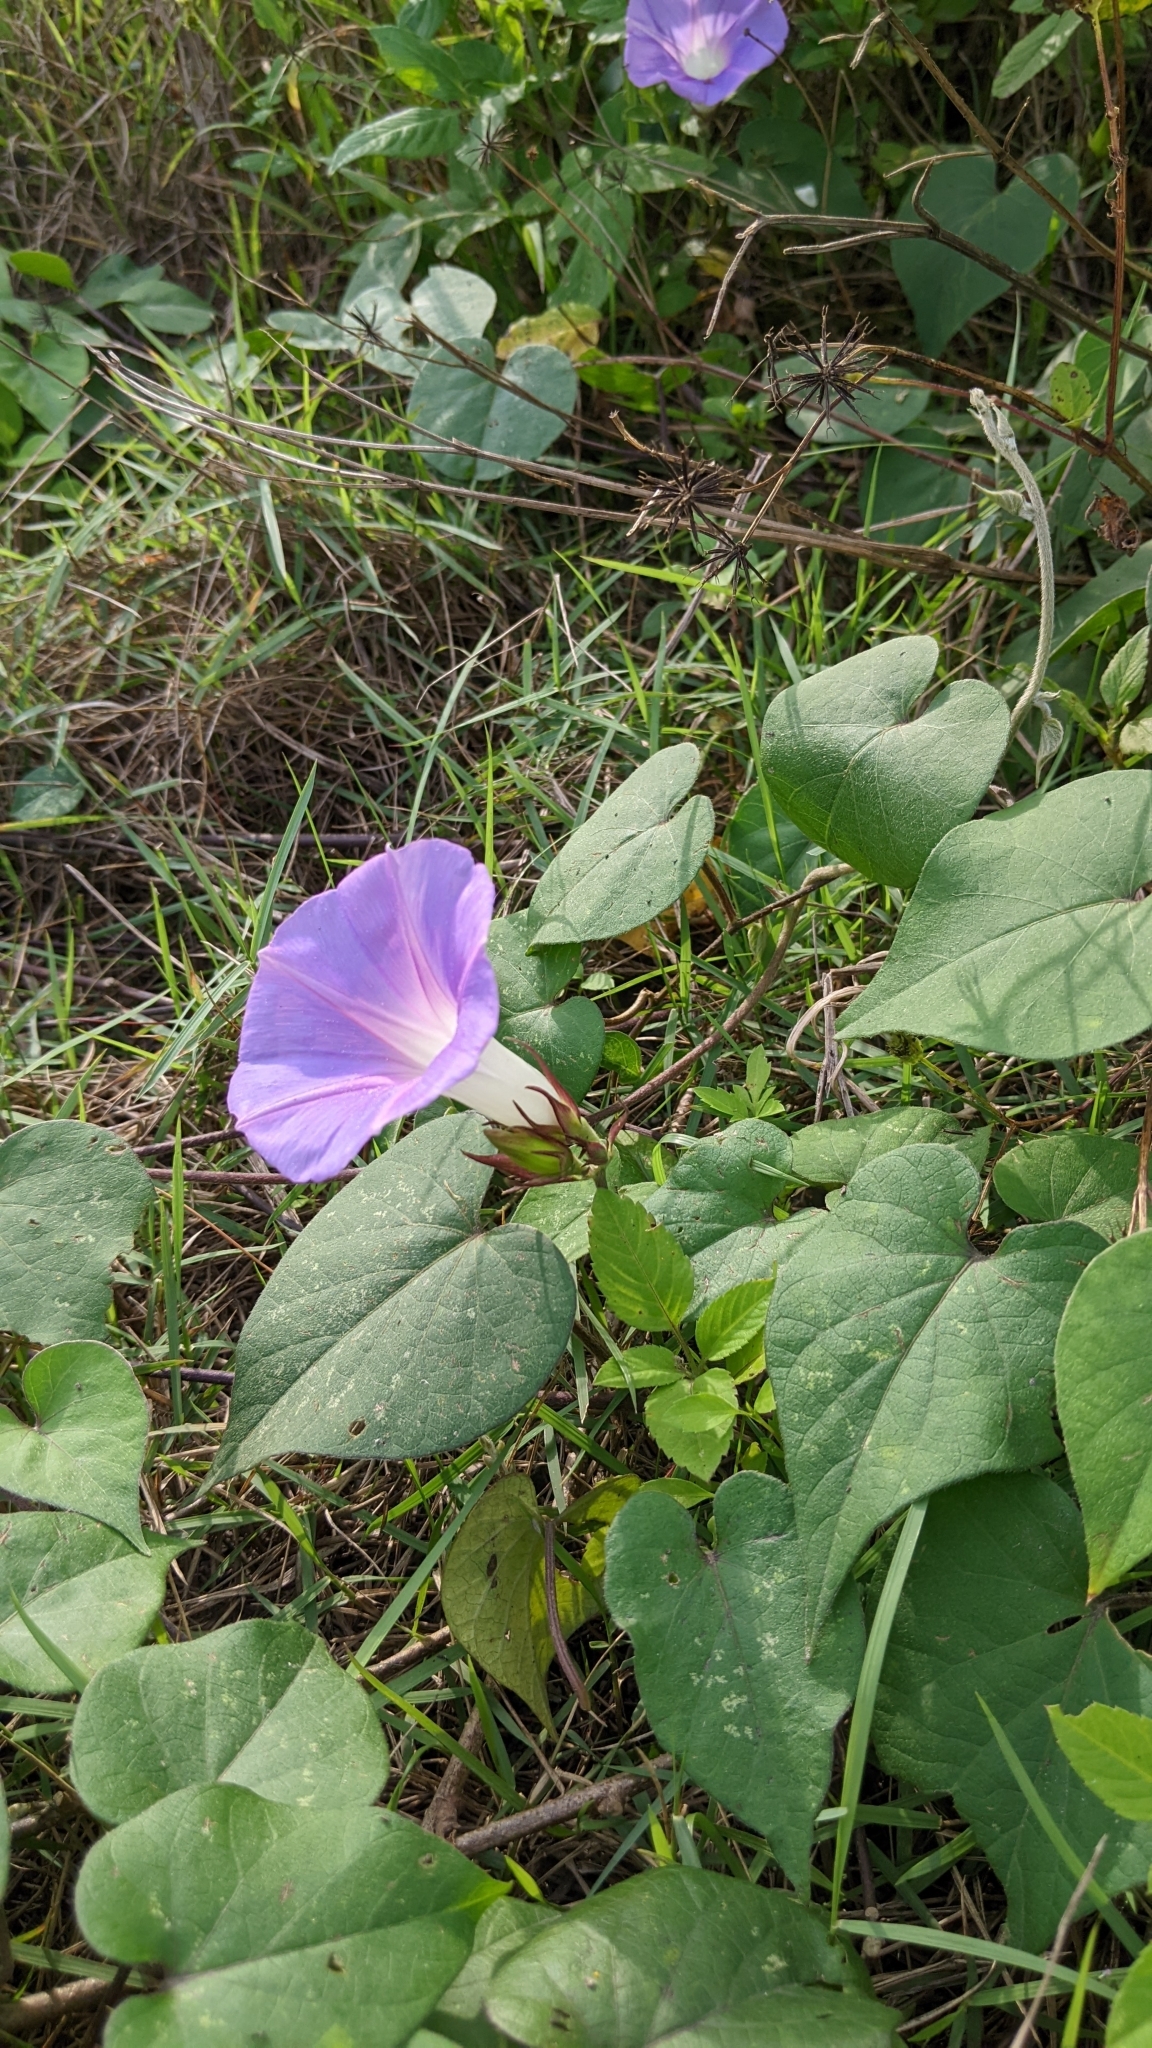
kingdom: Plantae
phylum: Tracheophyta
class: Magnoliopsida
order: Solanales
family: Convolvulaceae
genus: Ipomoea
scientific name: Ipomoea indica
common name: Blue dawnflower
